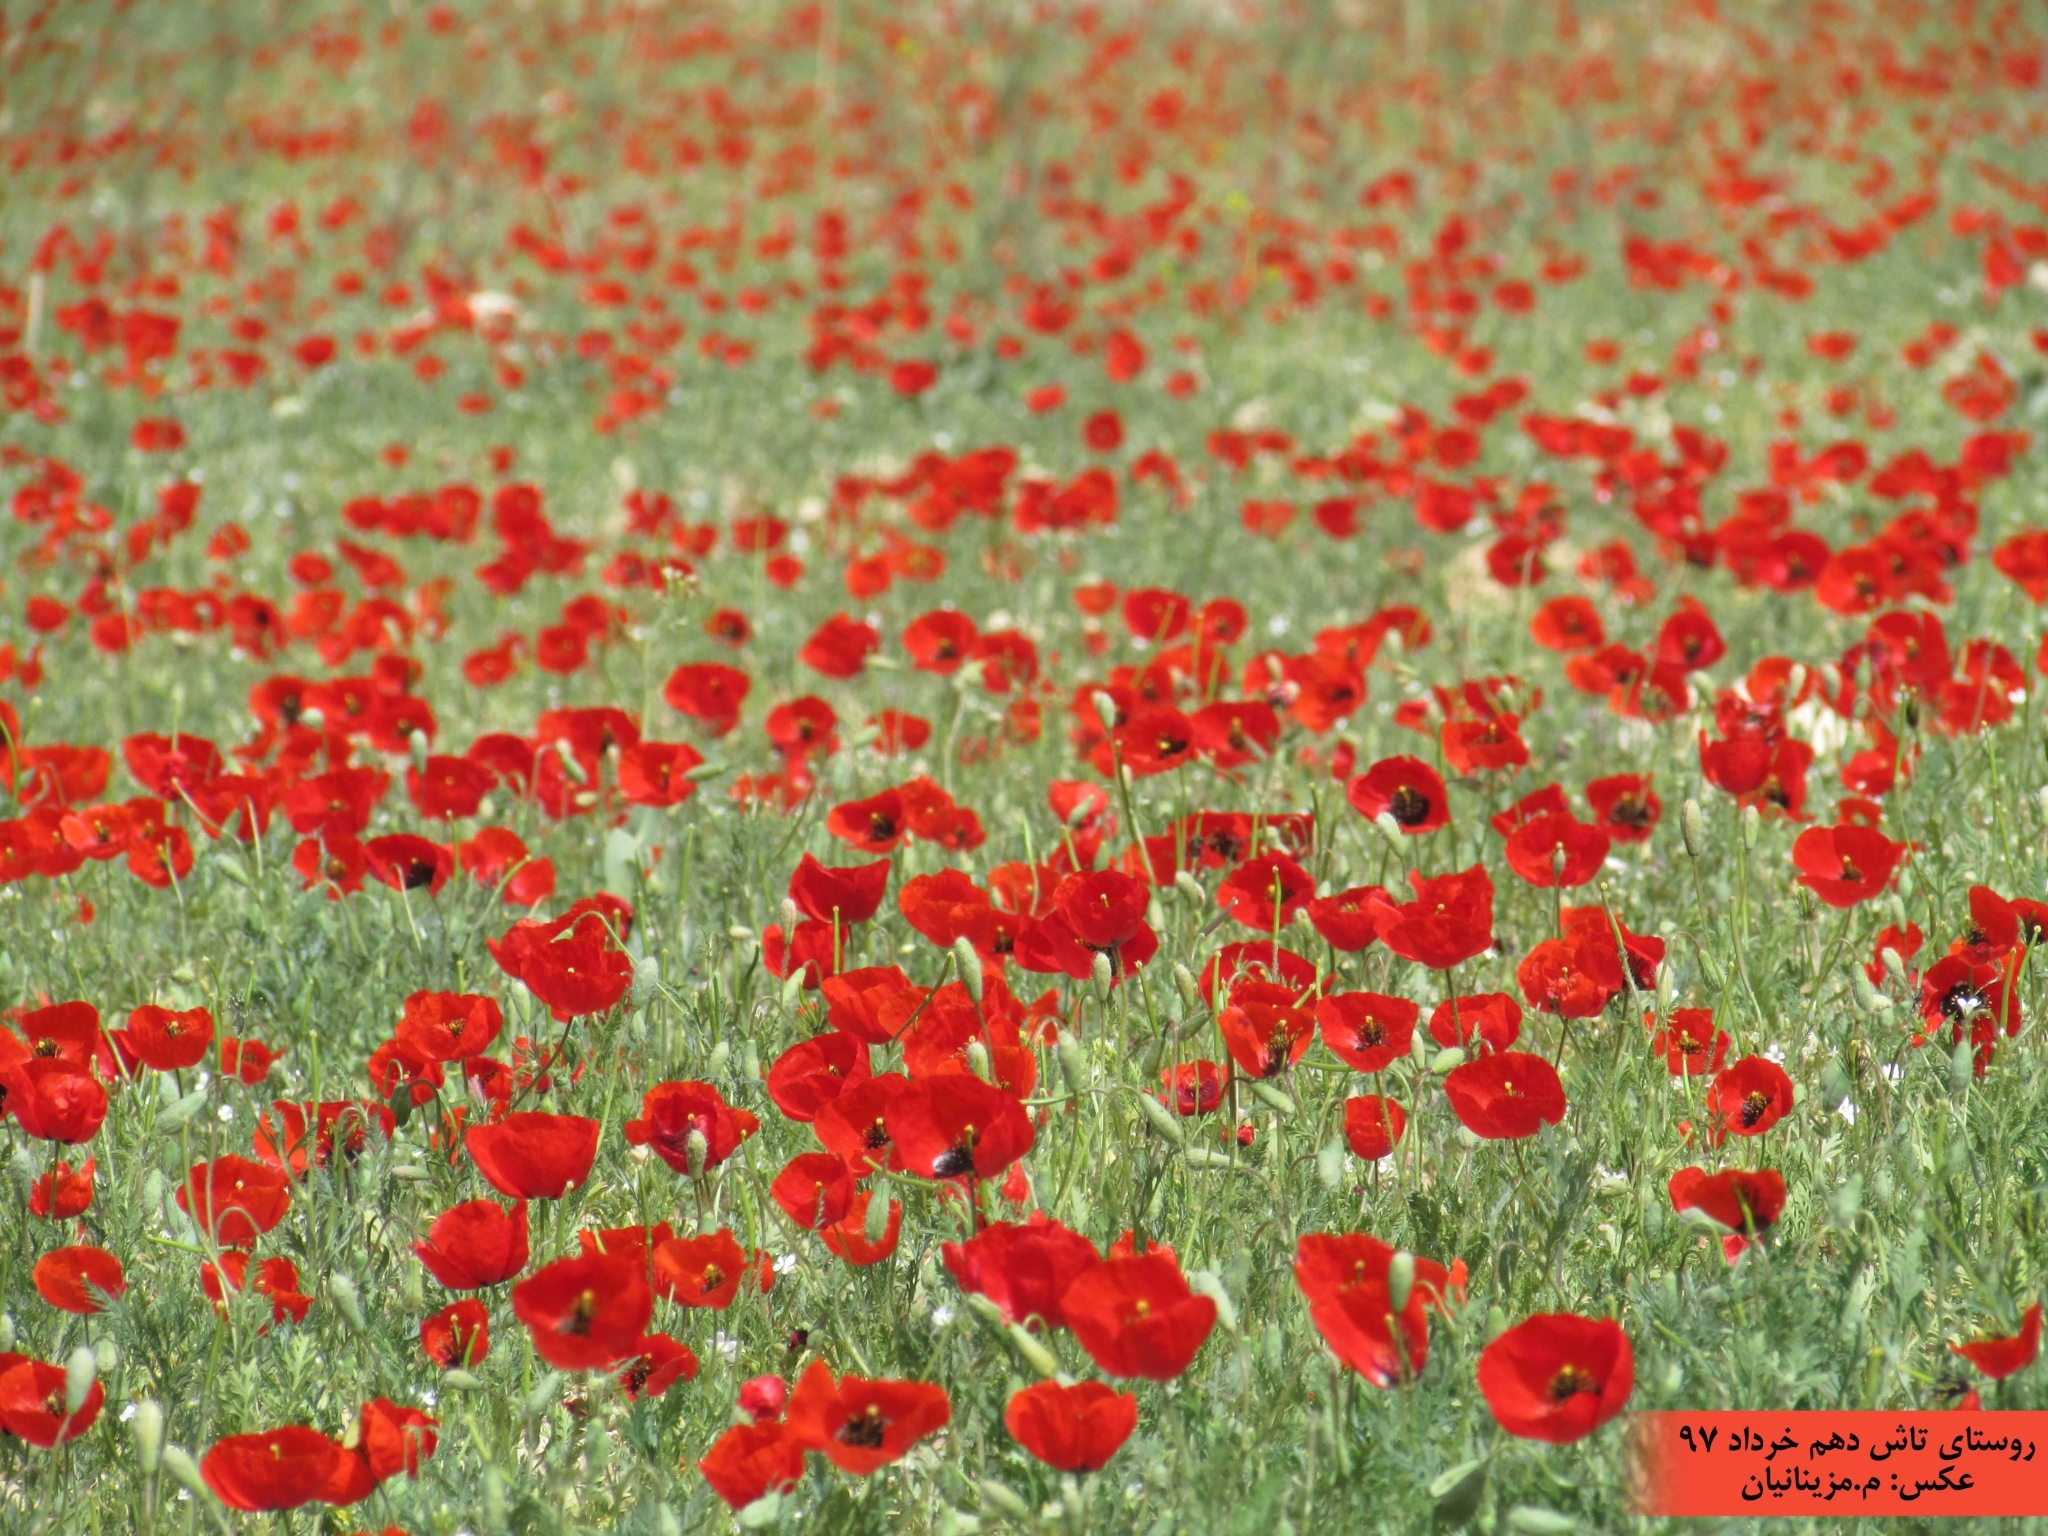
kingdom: Plantae
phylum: Tracheophyta
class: Magnoliopsida
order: Ranunculales
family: Papaveraceae
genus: Papaver
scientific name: Papaver rhoeas
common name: Corn poppy
